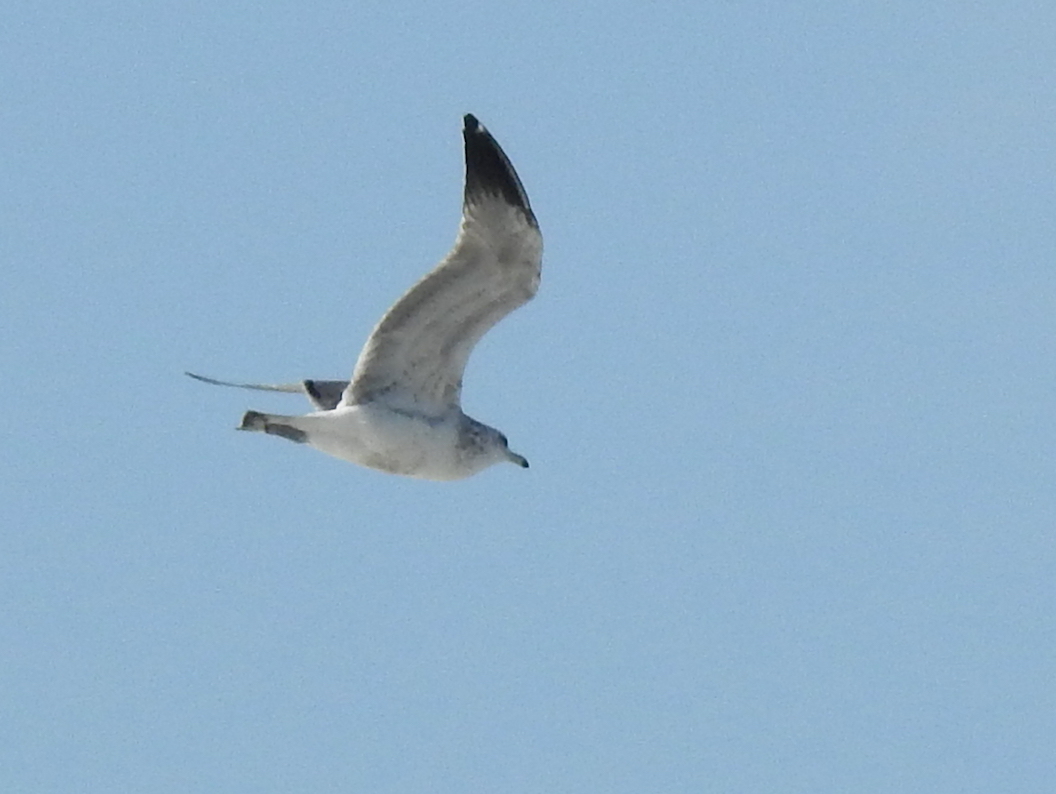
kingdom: Animalia
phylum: Chordata
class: Aves
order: Charadriiformes
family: Laridae
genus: Larus
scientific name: Larus californicus
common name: California gull
